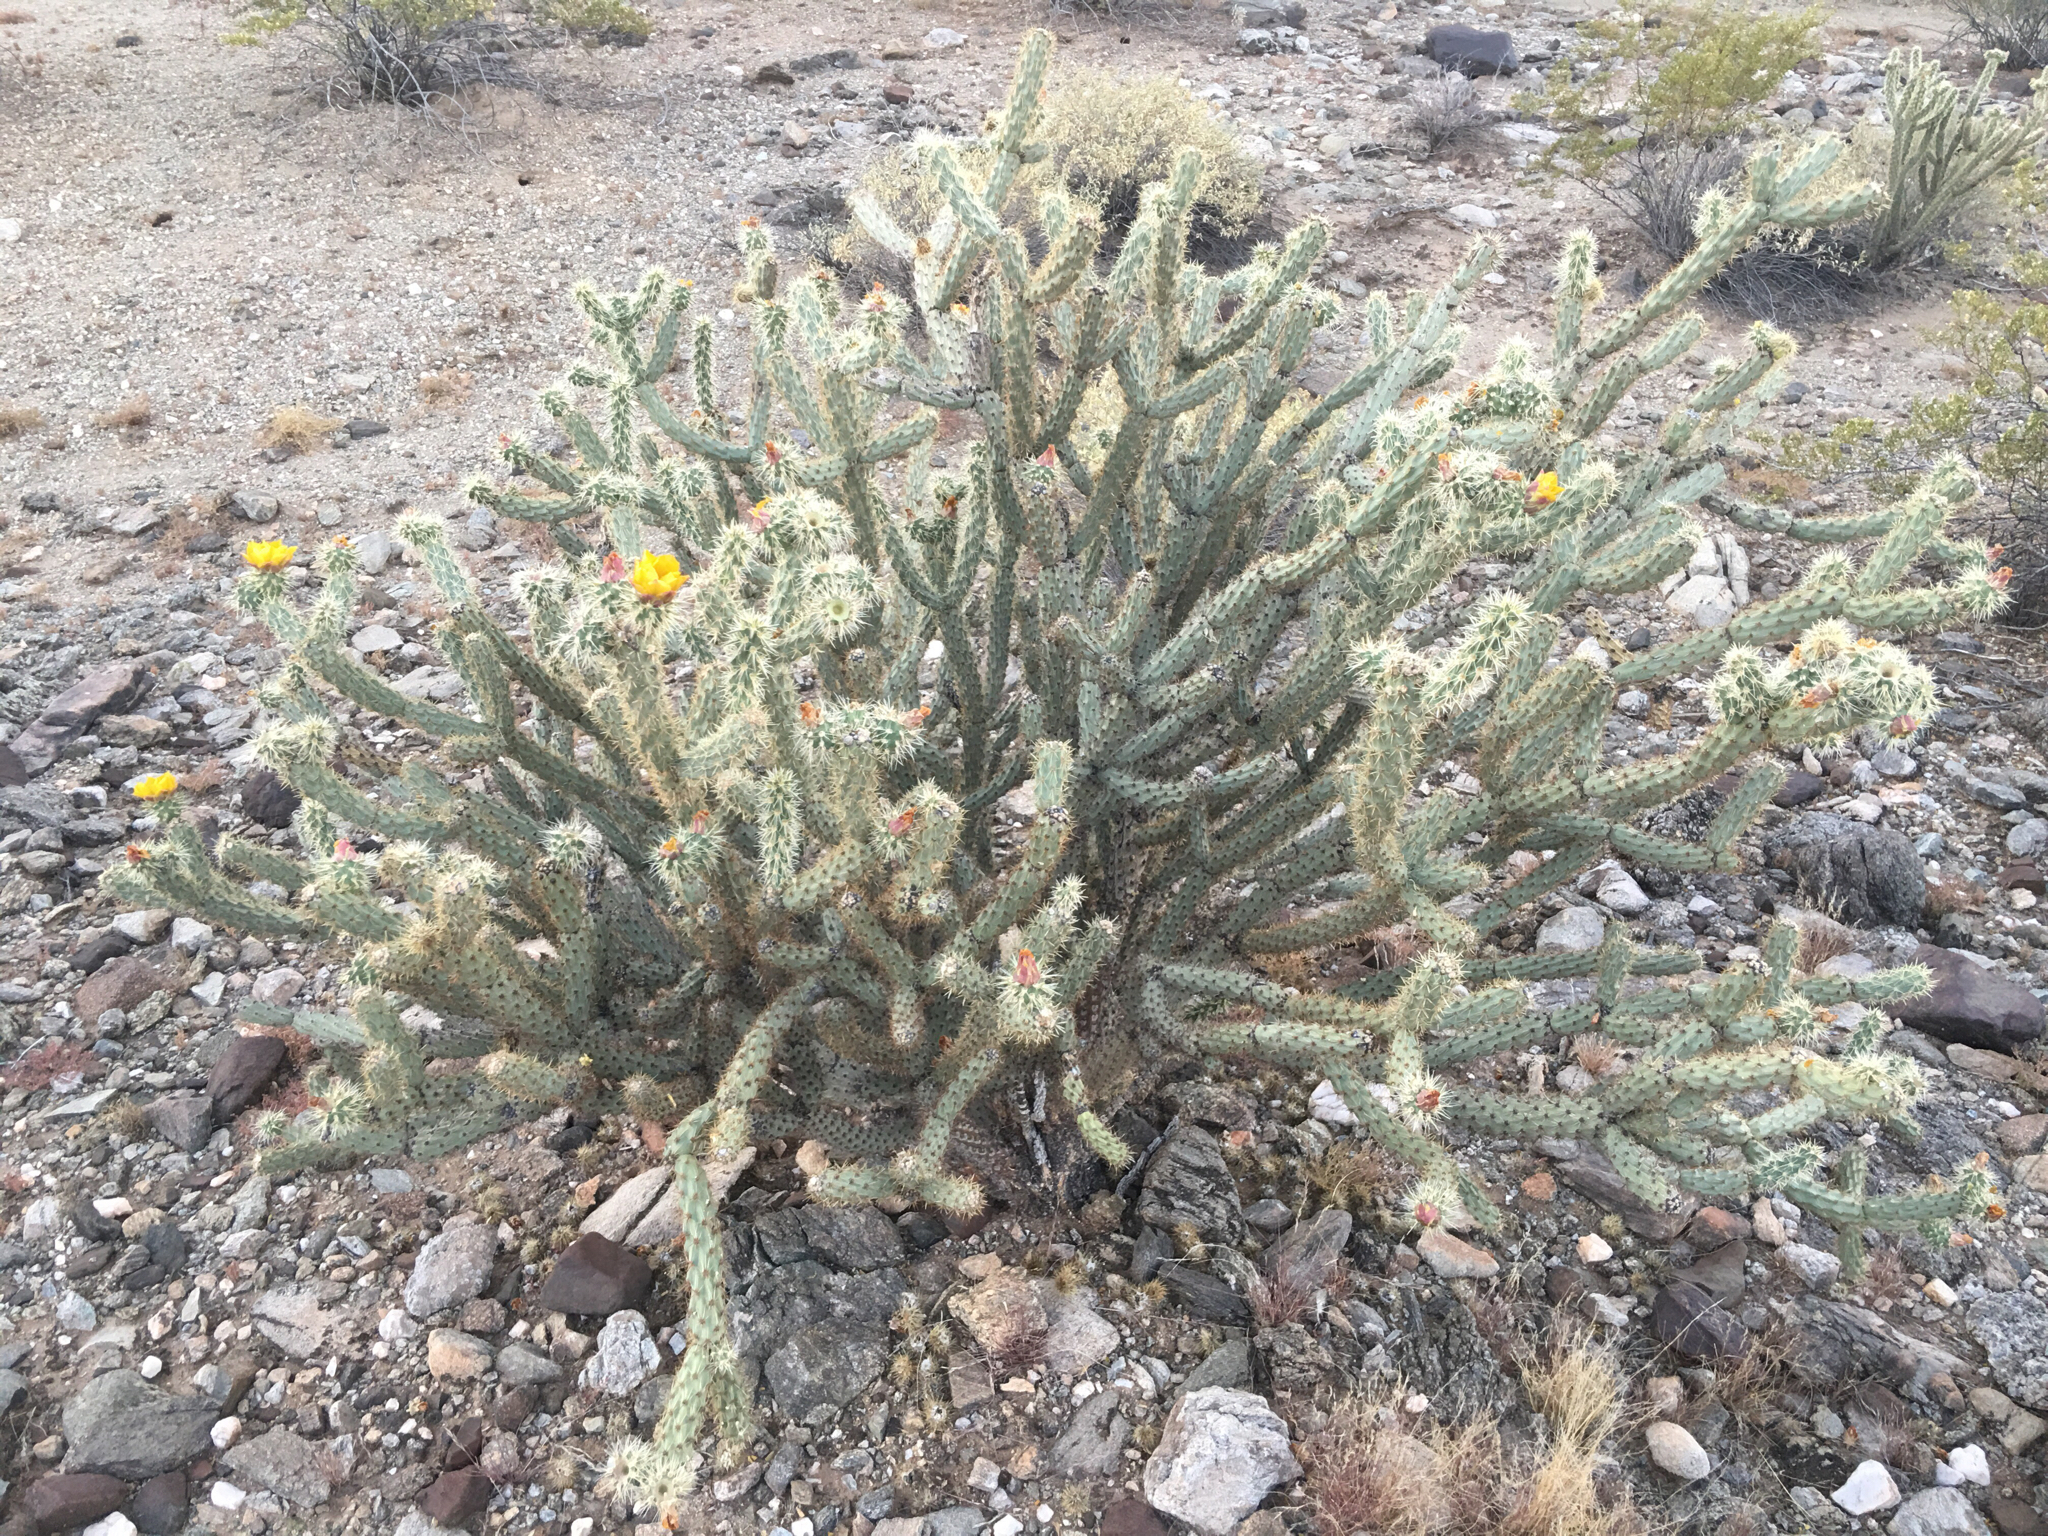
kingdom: Plantae
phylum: Tracheophyta
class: Magnoliopsida
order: Caryophyllales
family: Cactaceae
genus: Cylindropuntia
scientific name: Cylindropuntia acanthocarpa
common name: Buckhorn cholla
